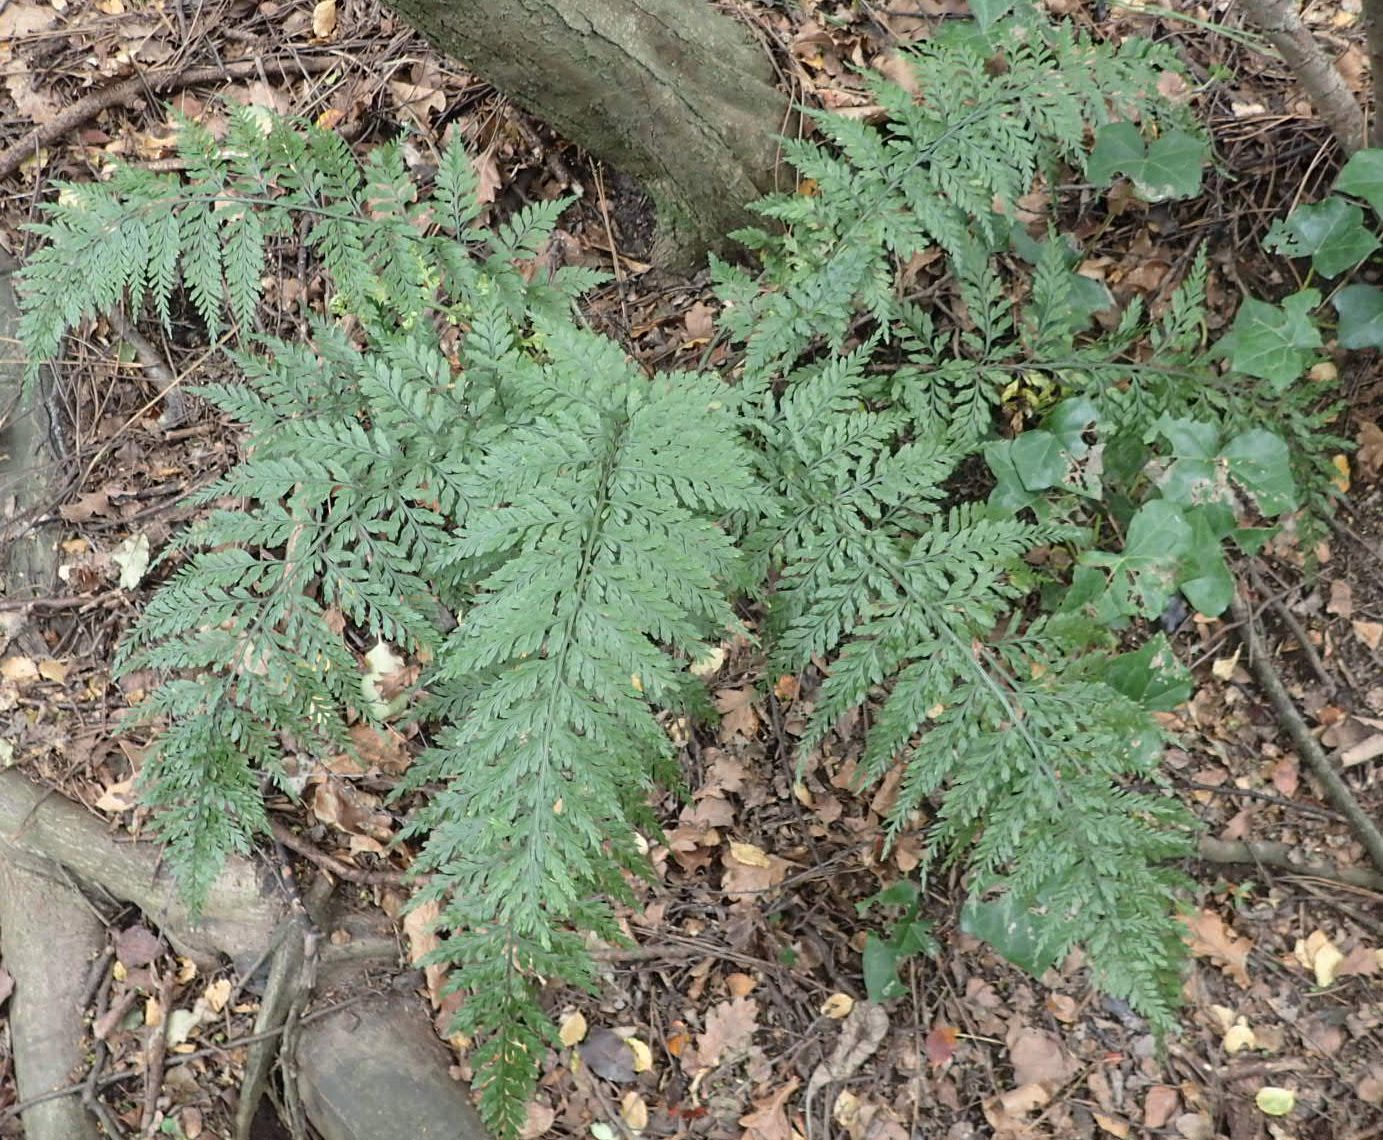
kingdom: Plantae
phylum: Tracheophyta
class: Polypodiopsida
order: Polypodiales
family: Aspleniaceae
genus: Asplenium
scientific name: Asplenium
